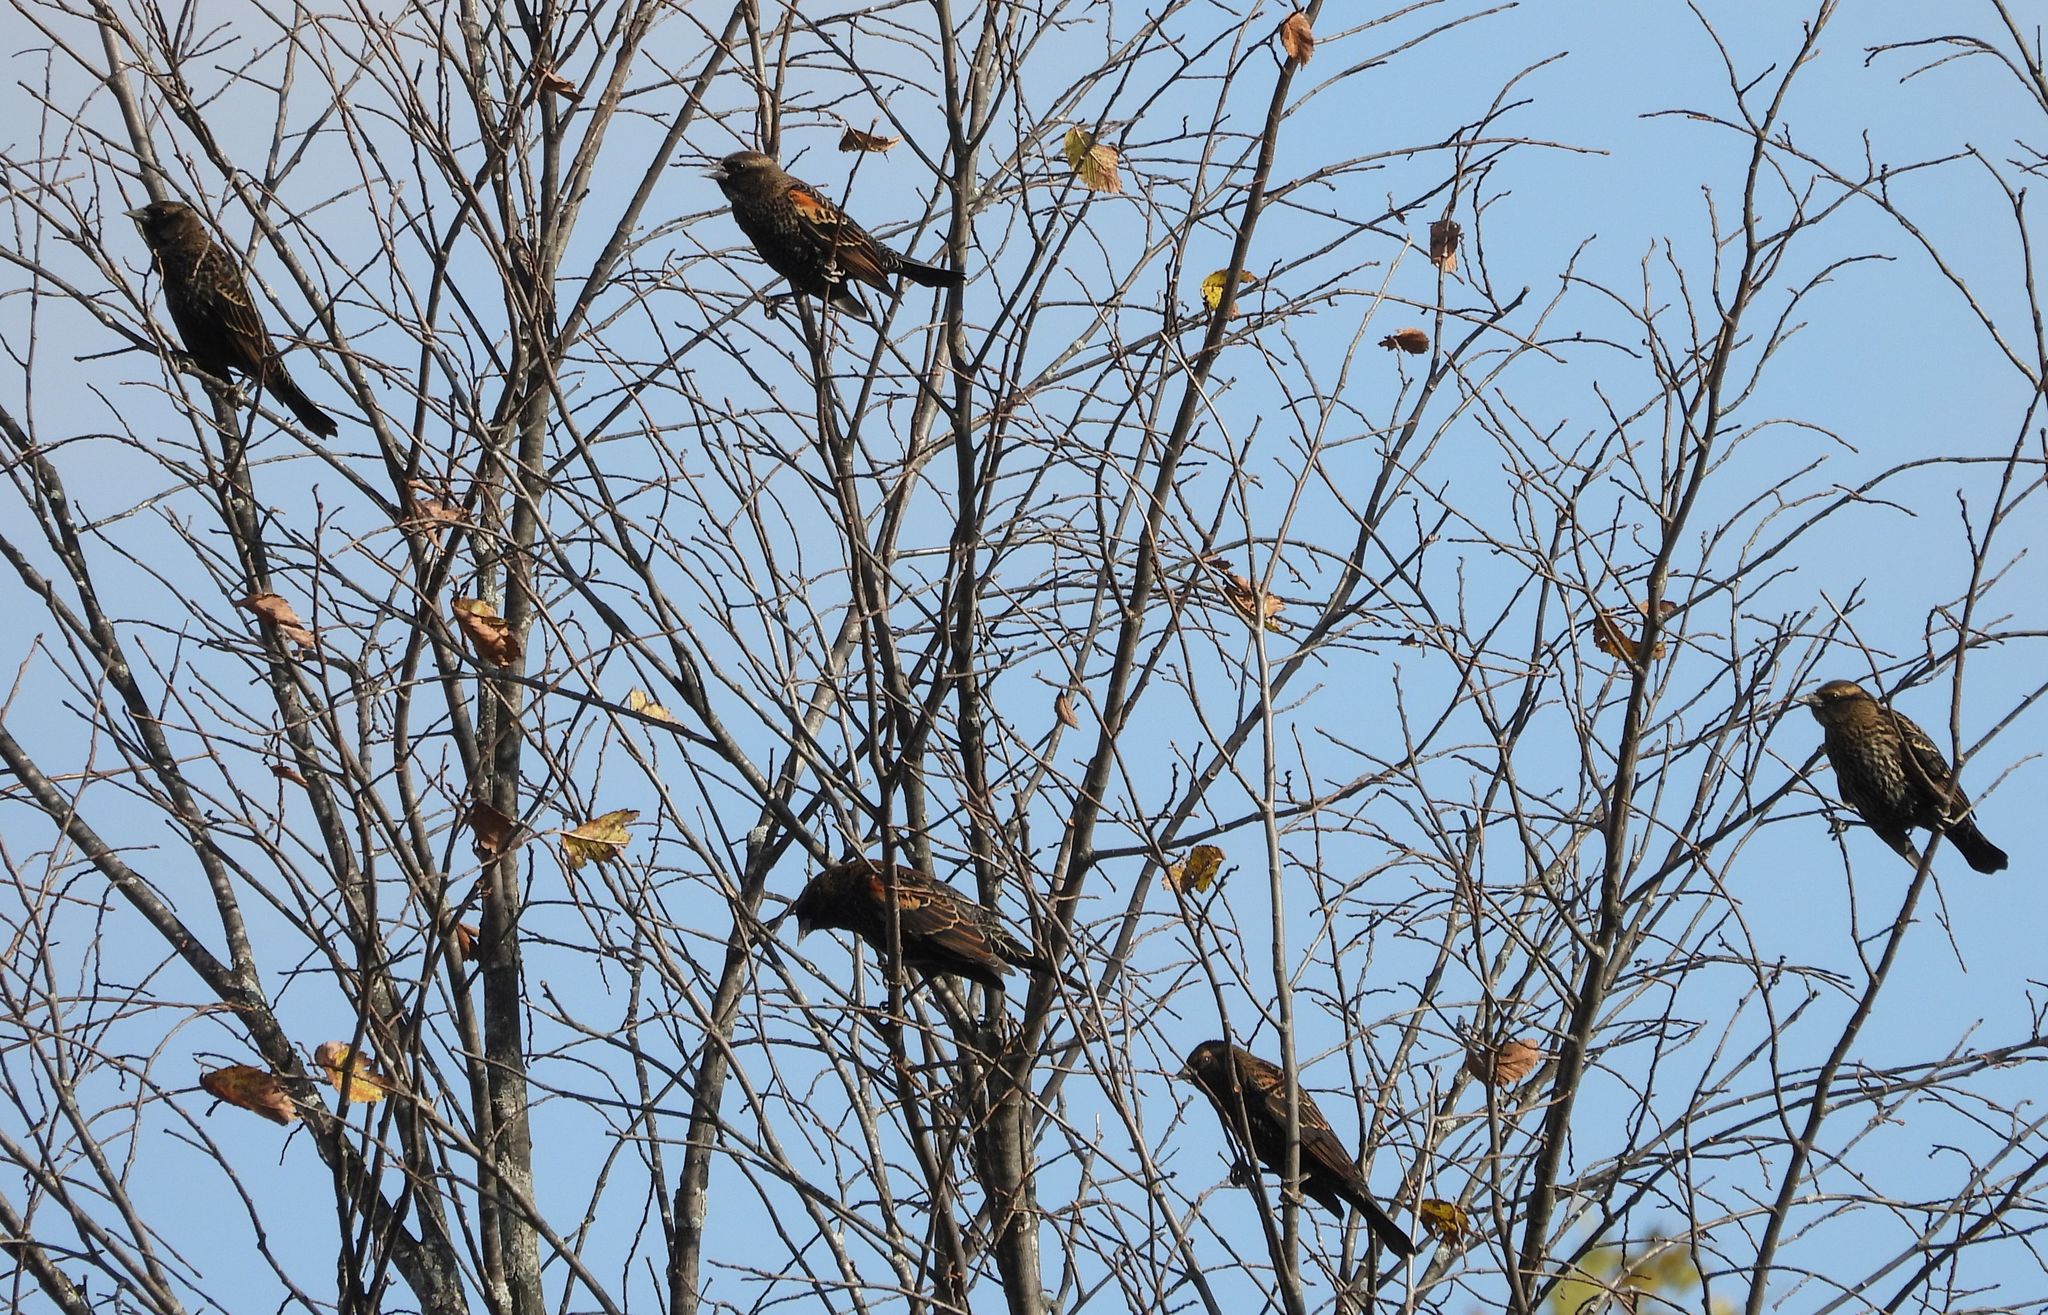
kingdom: Animalia
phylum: Chordata
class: Aves
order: Passeriformes
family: Icteridae
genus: Agelaius
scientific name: Agelaius phoeniceus
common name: Red-winged blackbird
